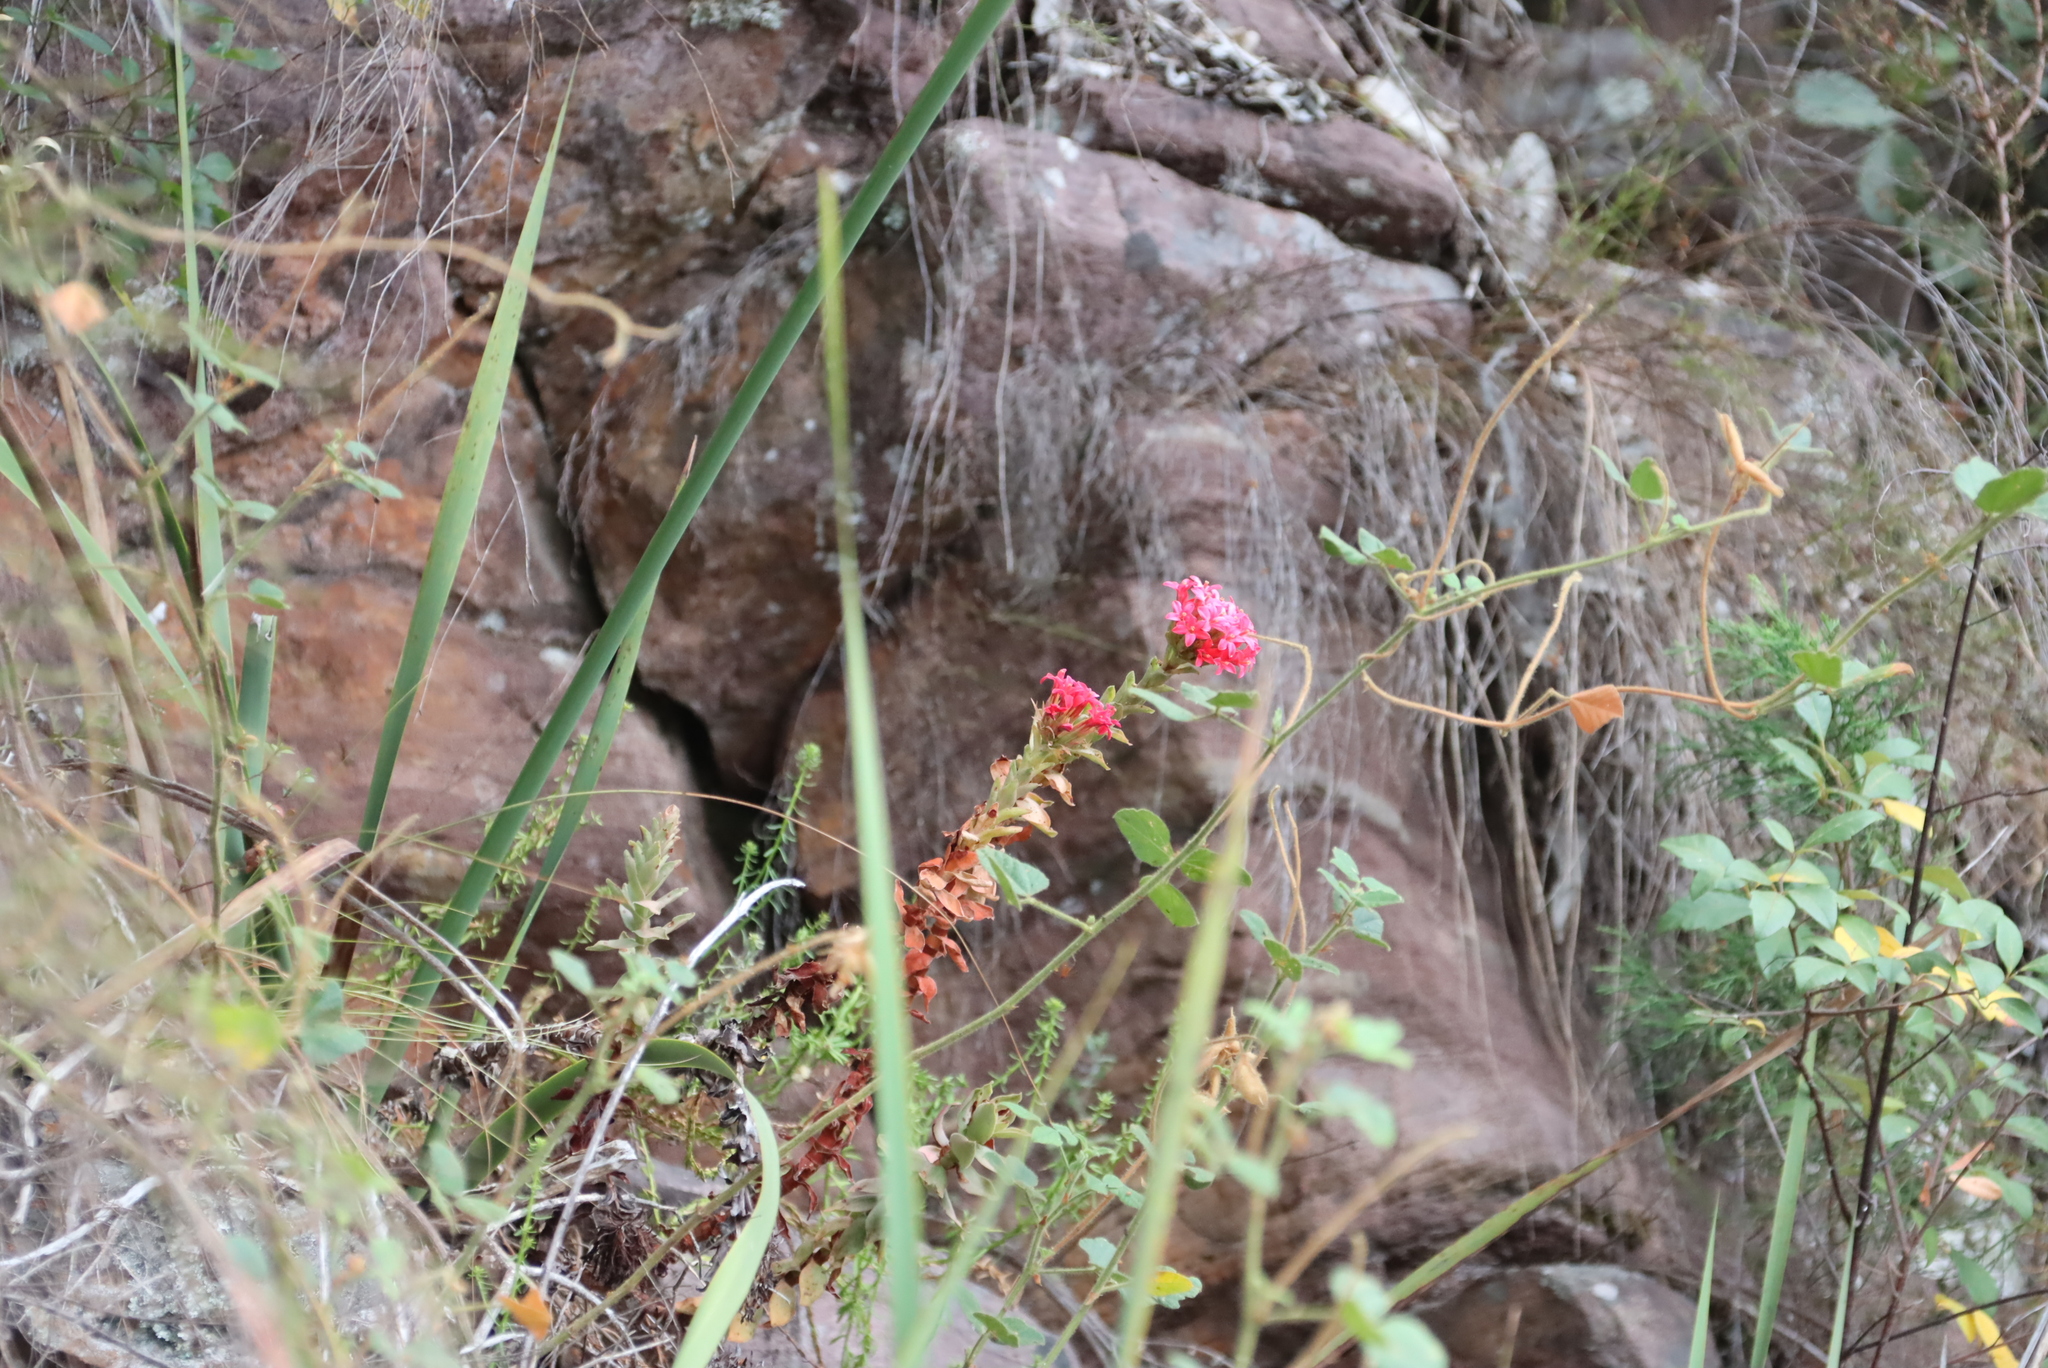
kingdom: Plantae
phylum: Tracheophyta
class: Magnoliopsida
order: Saxifragales
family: Crassulaceae
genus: Crassula
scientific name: Crassula coccinea
